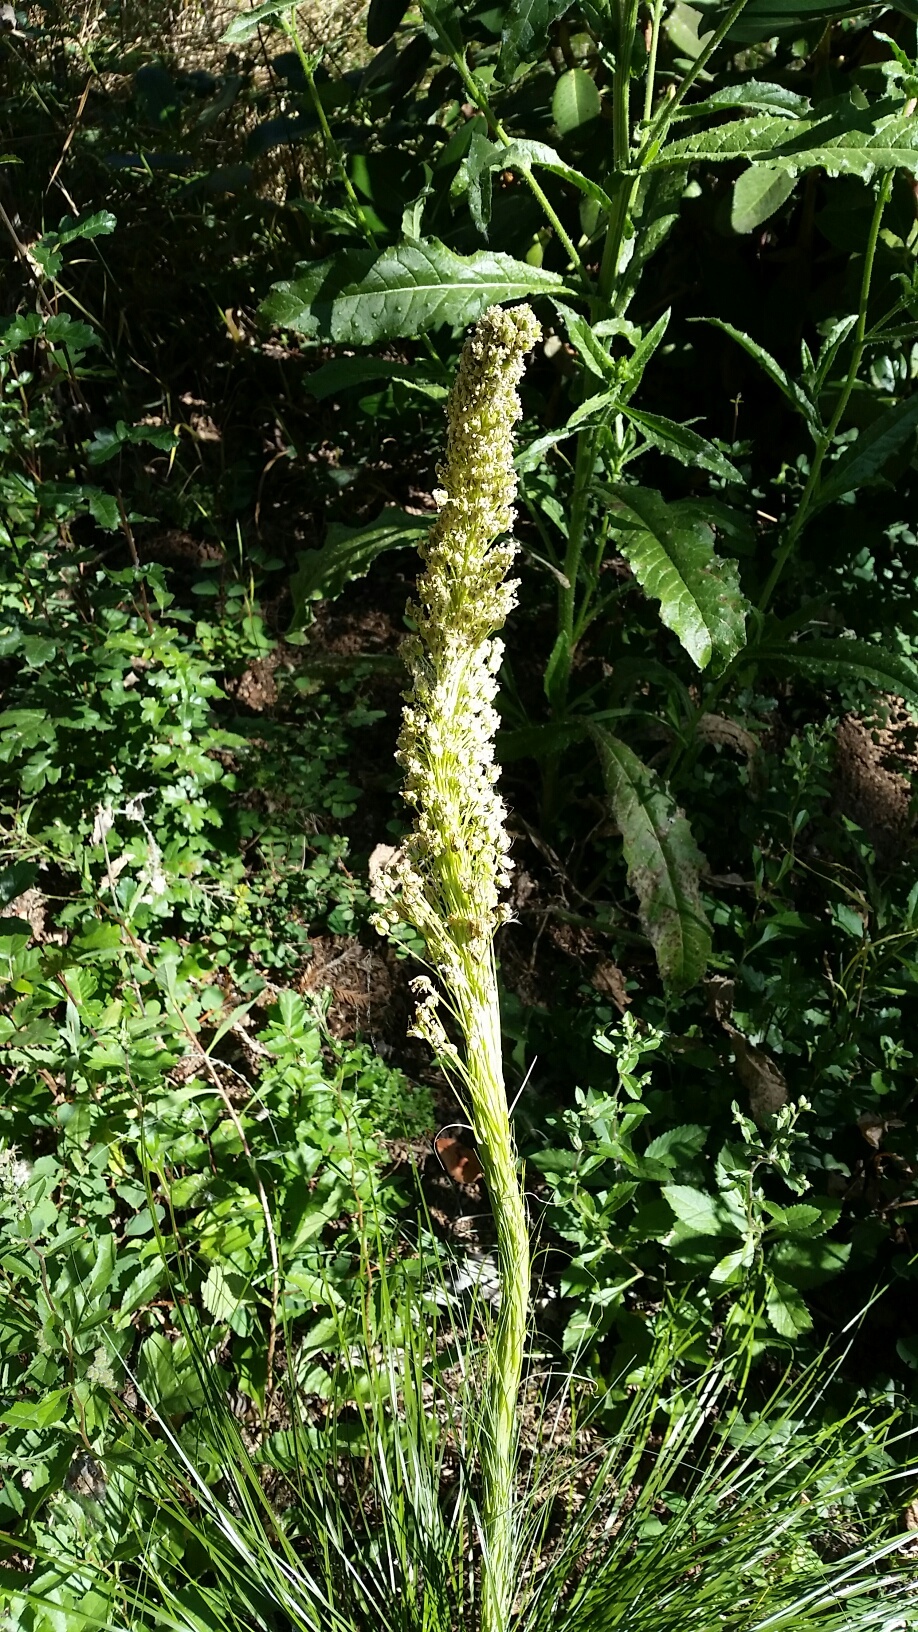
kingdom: Plantae
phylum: Tracheophyta
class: Liliopsida
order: Liliales
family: Melanthiaceae
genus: Xerophyllum
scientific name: Xerophyllum tenax
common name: Bear-grass
